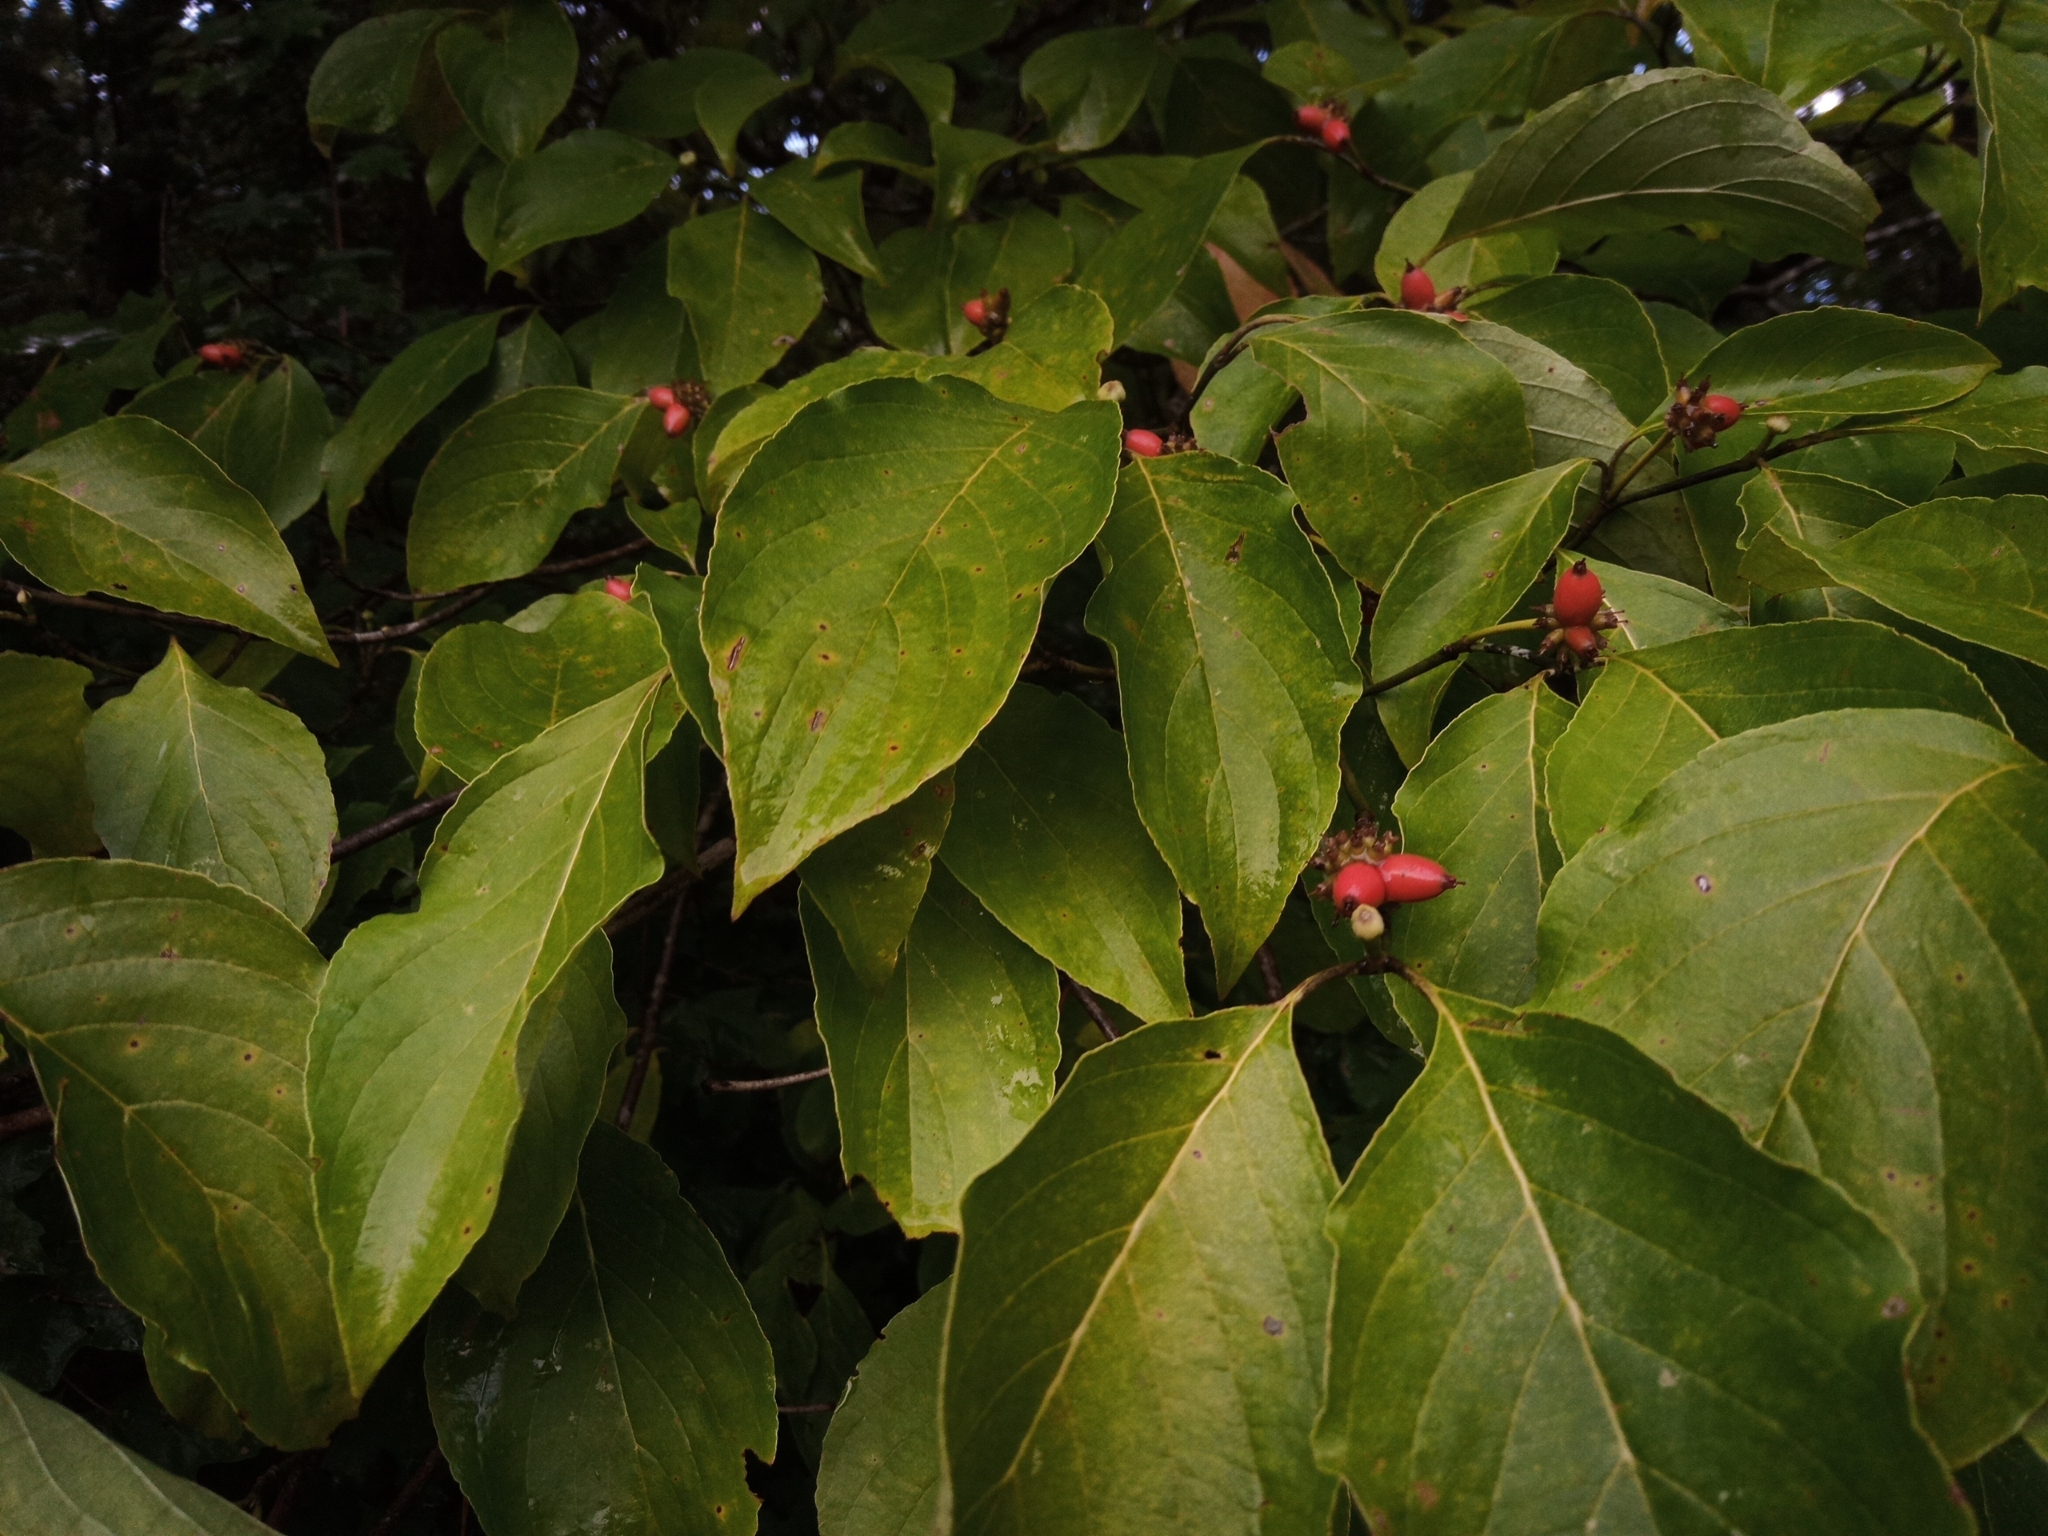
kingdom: Plantae
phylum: Tracheophyta
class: Magnoliopsida
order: Cornales
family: Cornaceae
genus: Cornus
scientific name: Cornus florida
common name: Flowering dogwood
